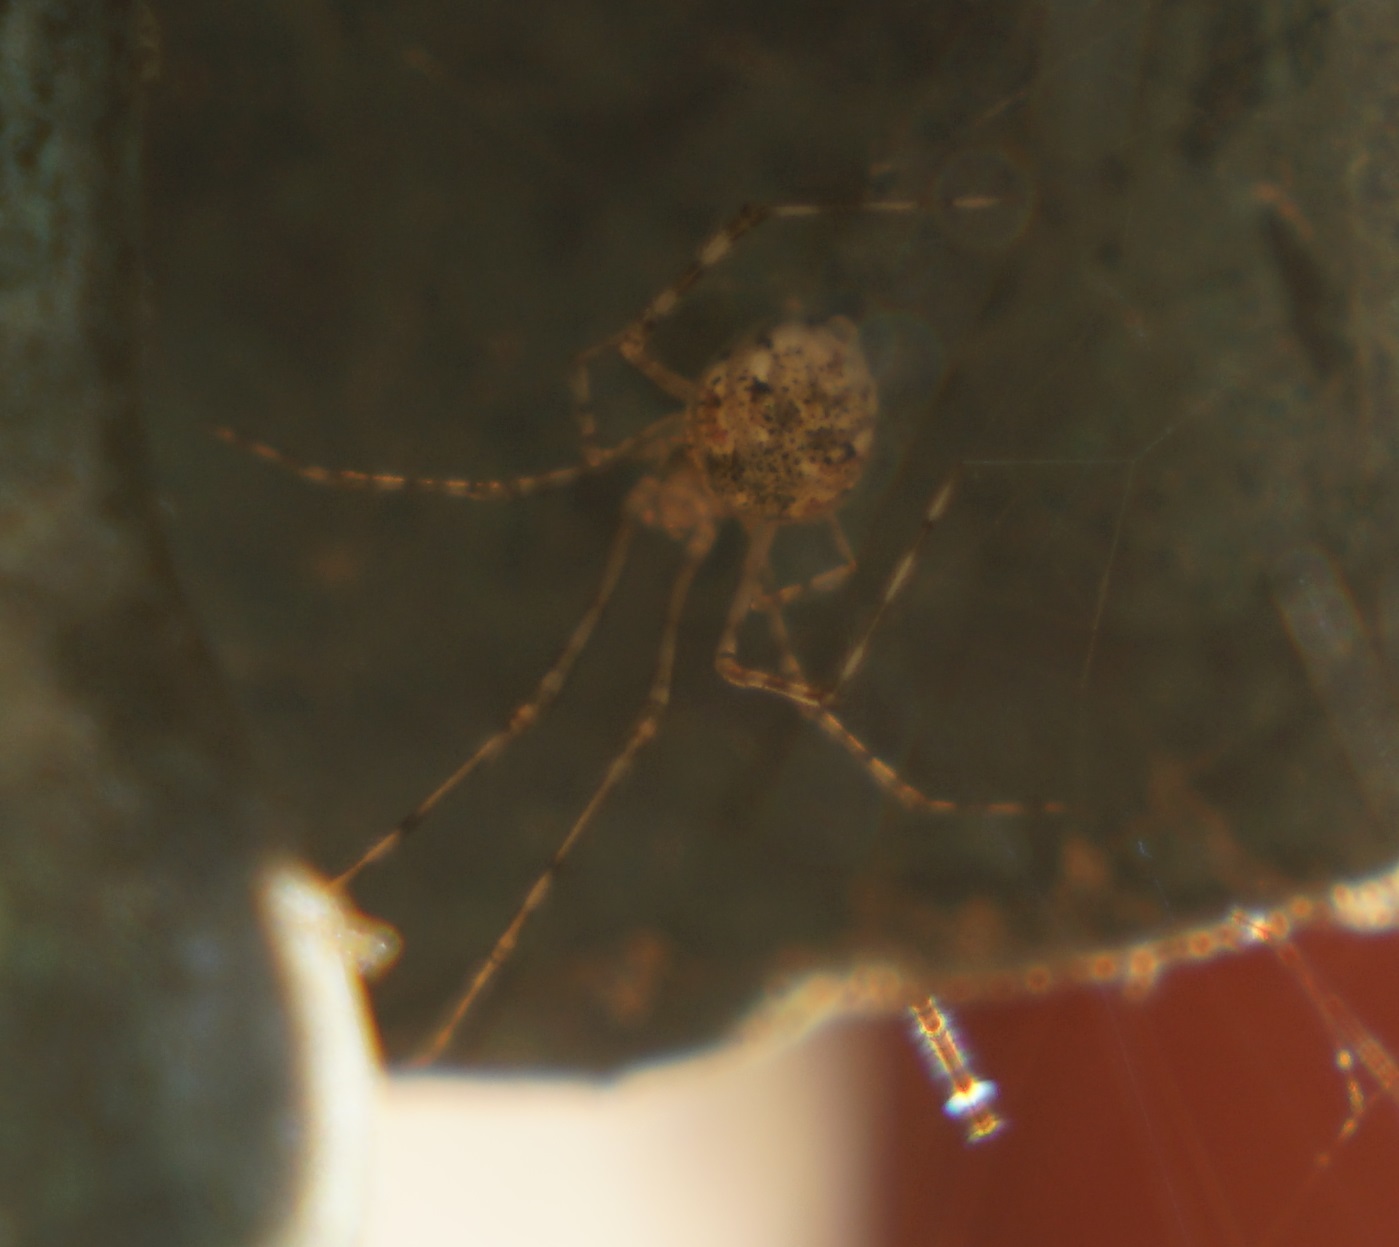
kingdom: Animalia
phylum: Arthropoda
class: Arachnida
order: Araneae
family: Theridiidae
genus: Cryptachaea
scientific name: Cryptachaea gigantipes
